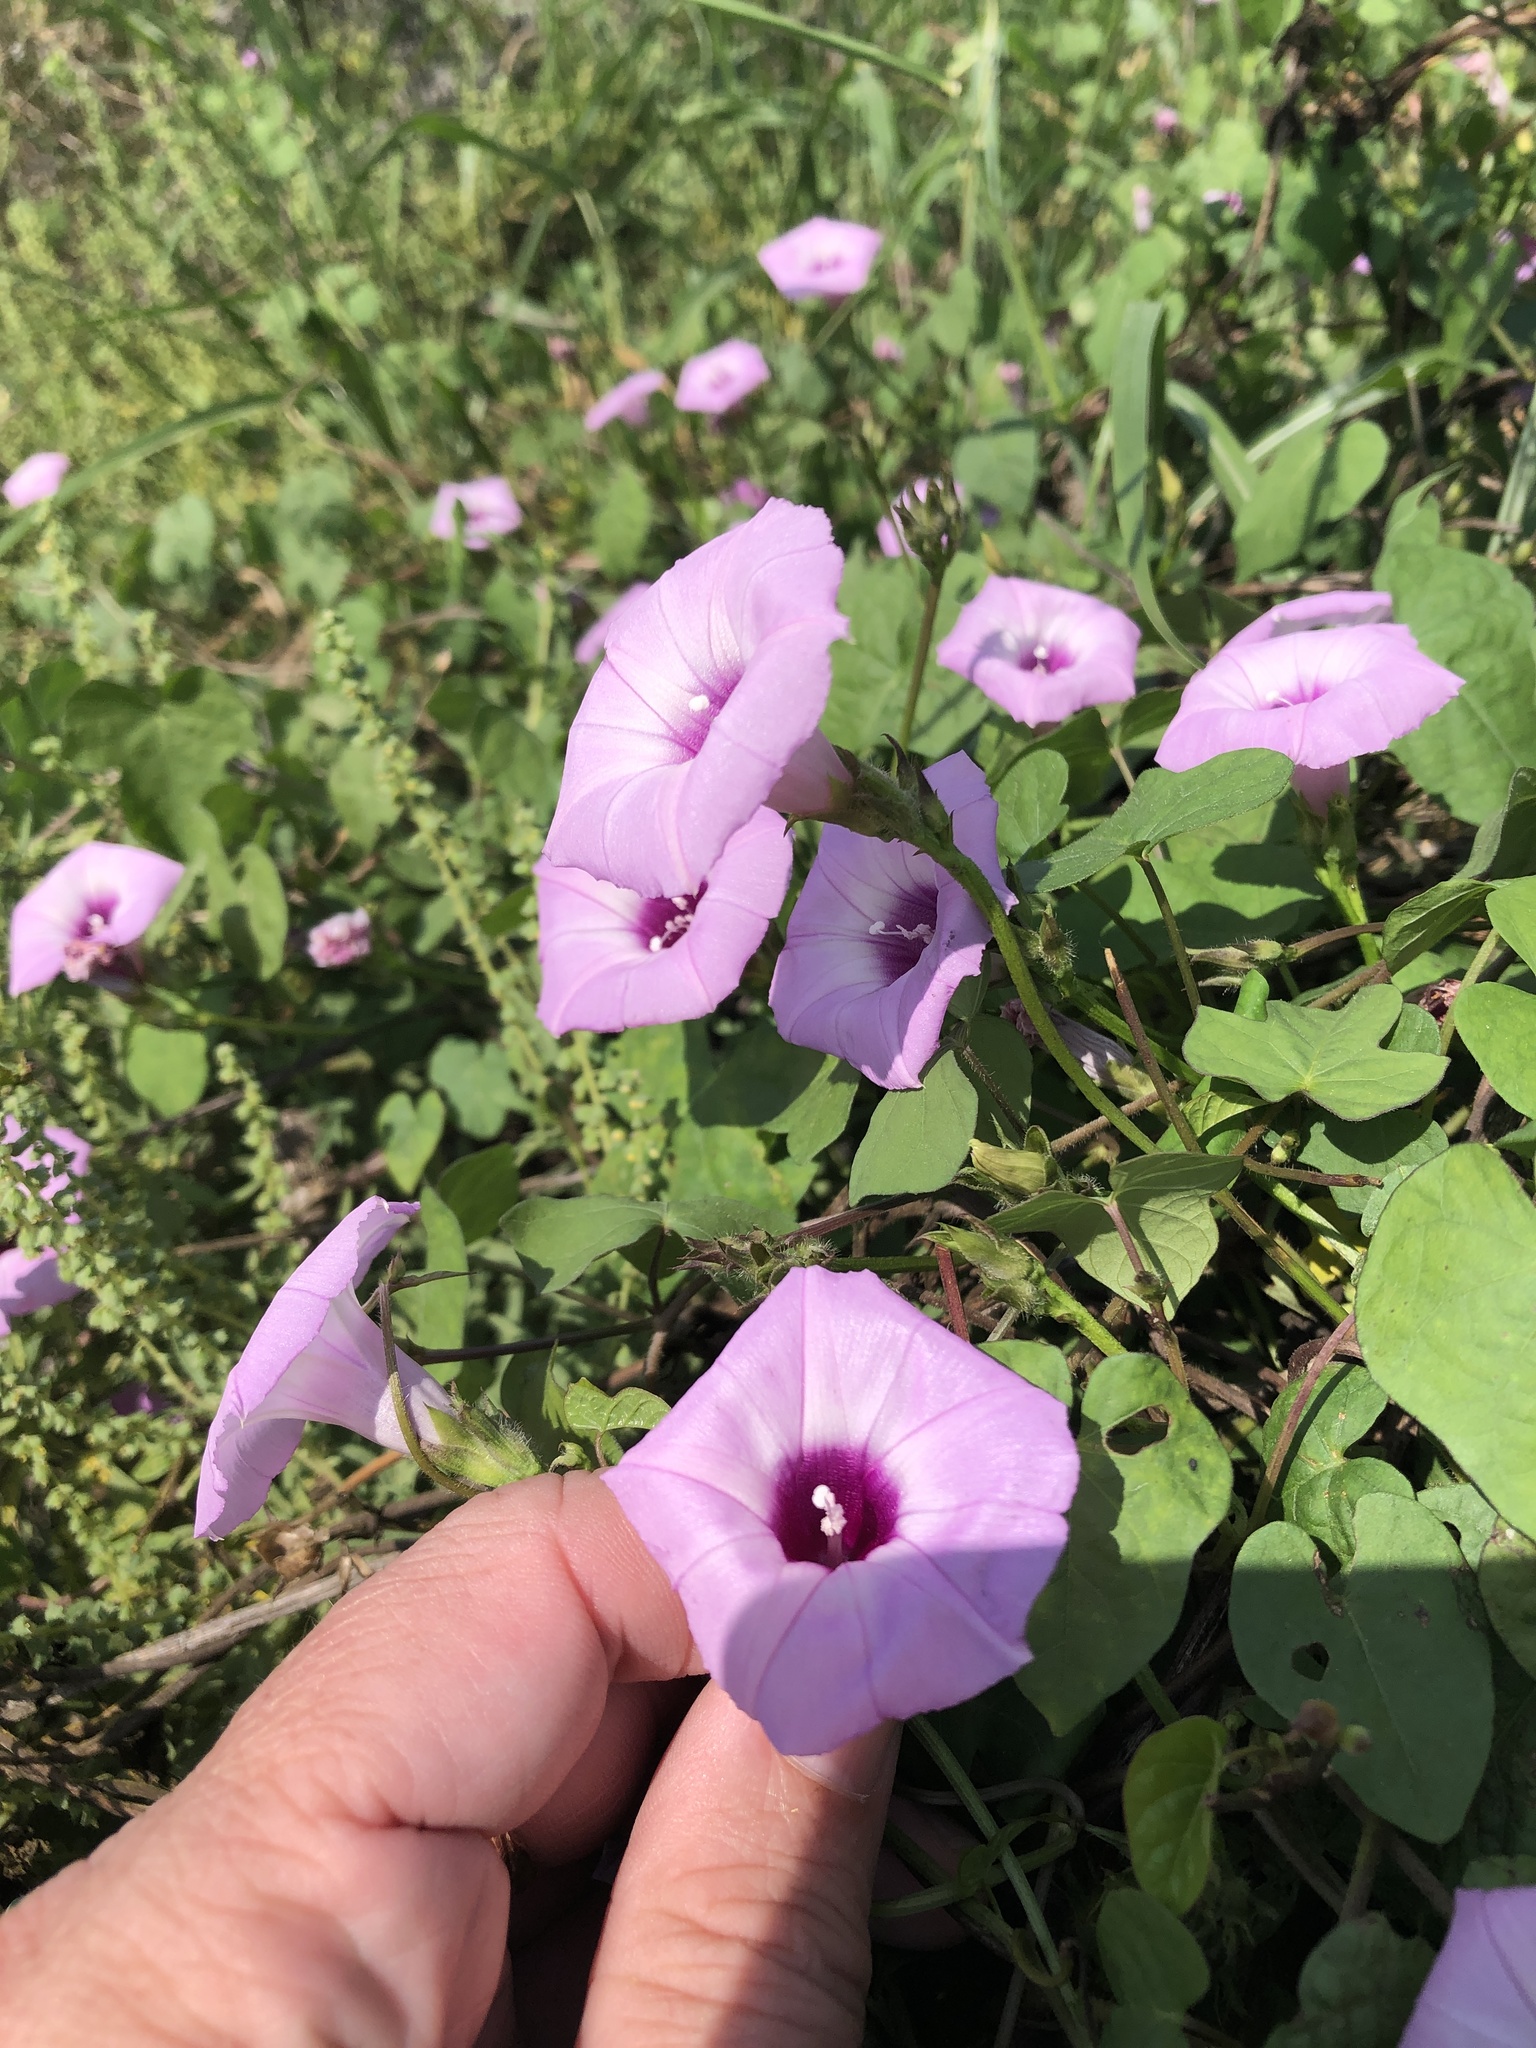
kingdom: Plantae
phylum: Tracheophyta
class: Magnoliopsida
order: Solanales
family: Convolvulaceae
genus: Ipomoea
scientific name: Ipomoea cordatotriloba
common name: Cotton morning glory
